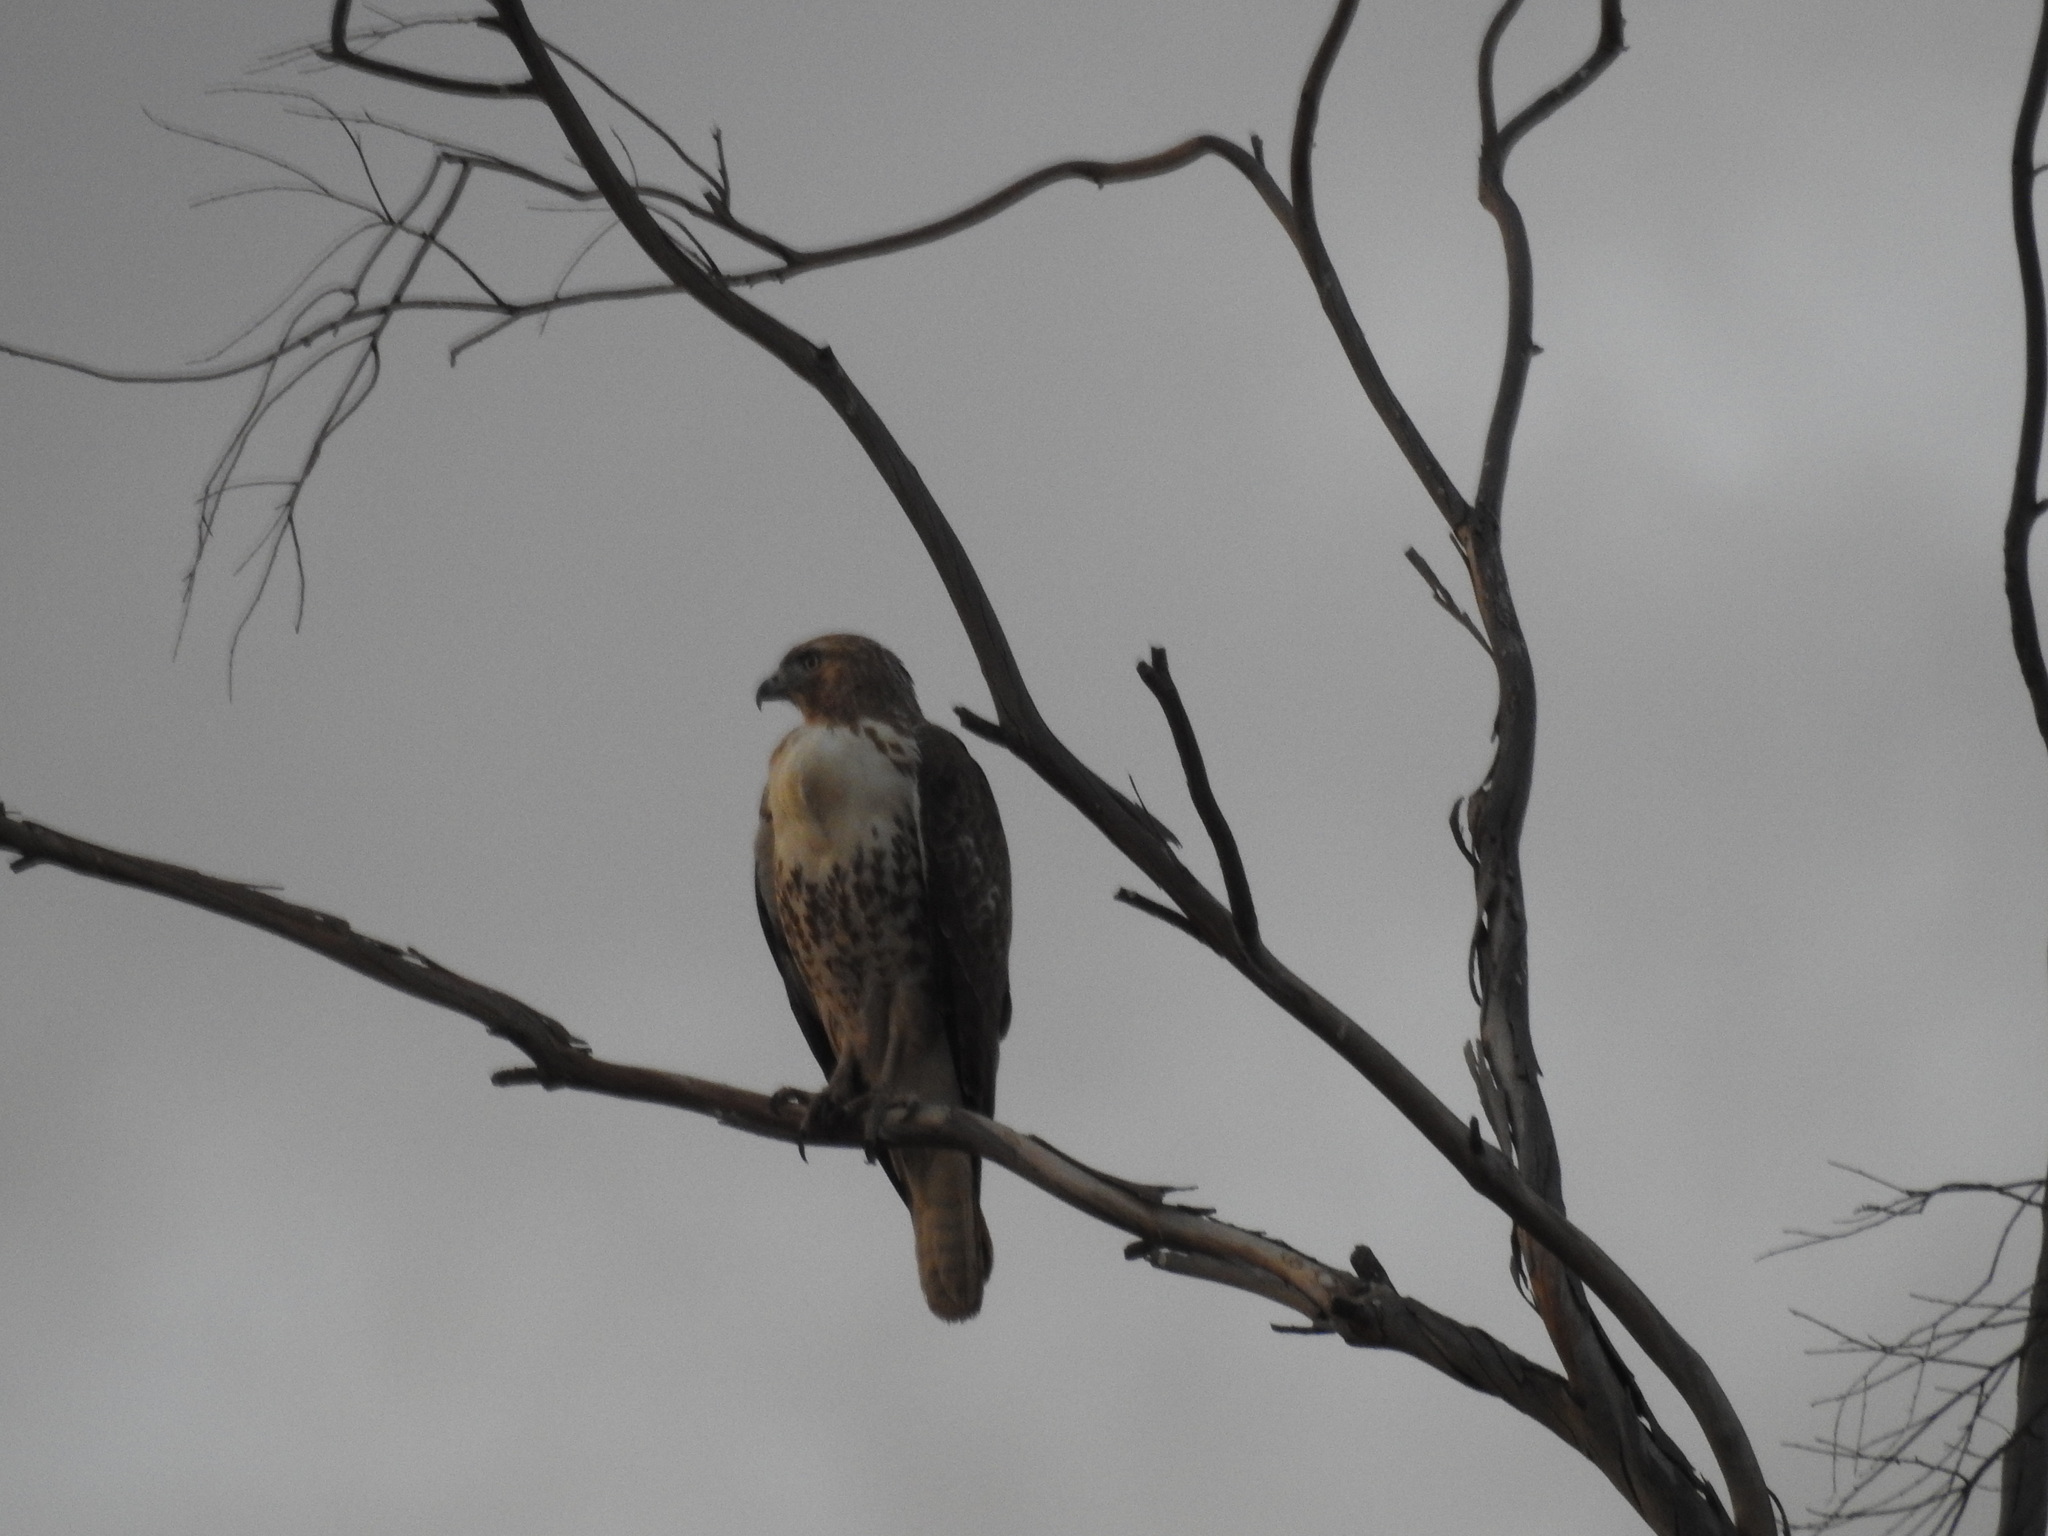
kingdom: Animalia
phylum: Chordata
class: Aves
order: Accipitriformes
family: Accipitridae
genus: Buteo
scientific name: Buteo jamaicensis
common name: Red-tailed hawk
